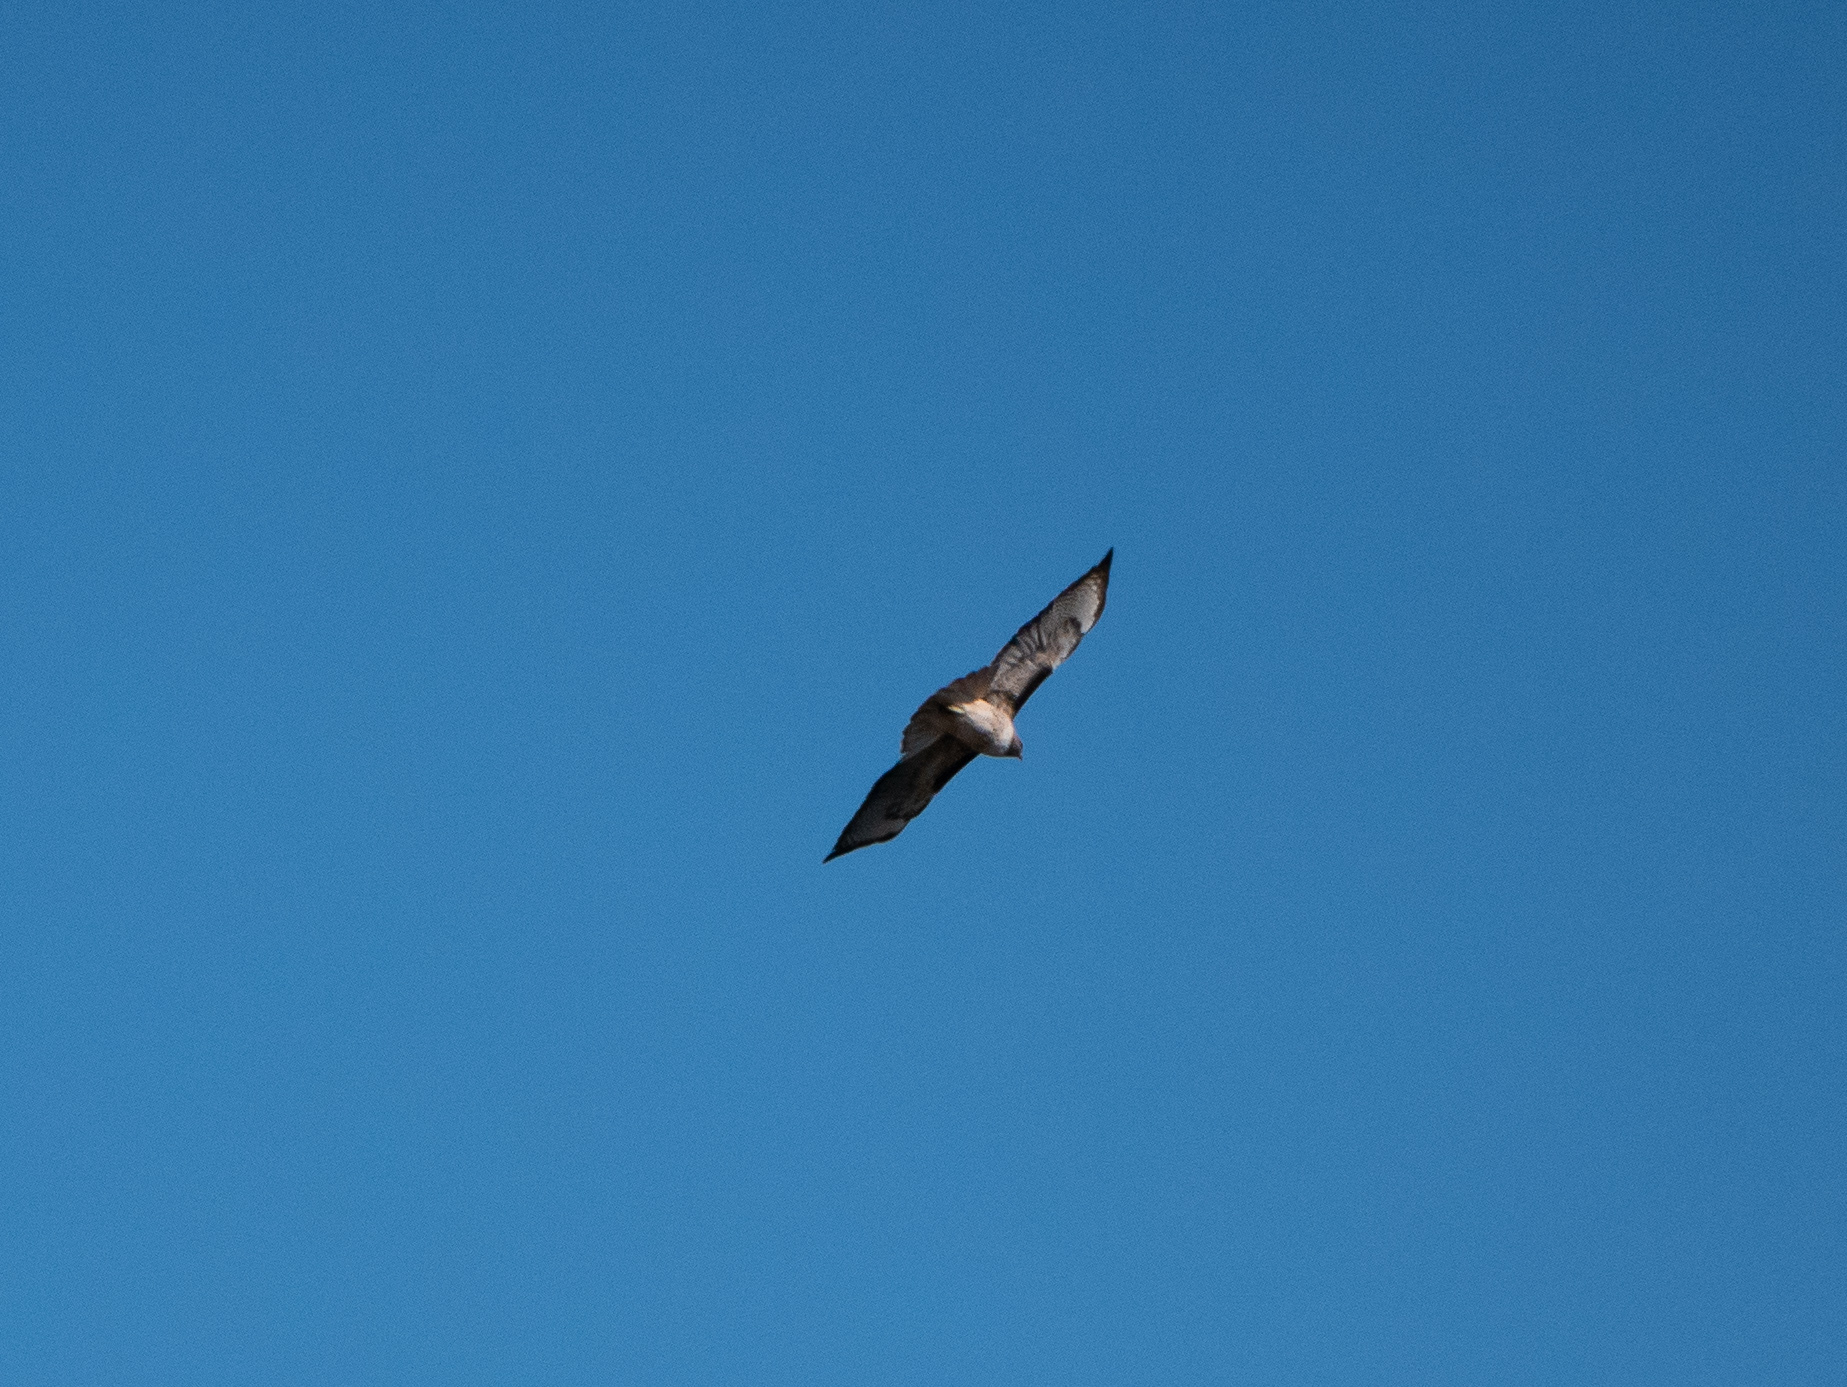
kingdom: Animalia
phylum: Chordata
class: Aves
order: Accipitriformes
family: Accipitridae
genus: Buteo
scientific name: Buteo jamaicensis
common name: Red-tailed hawk
